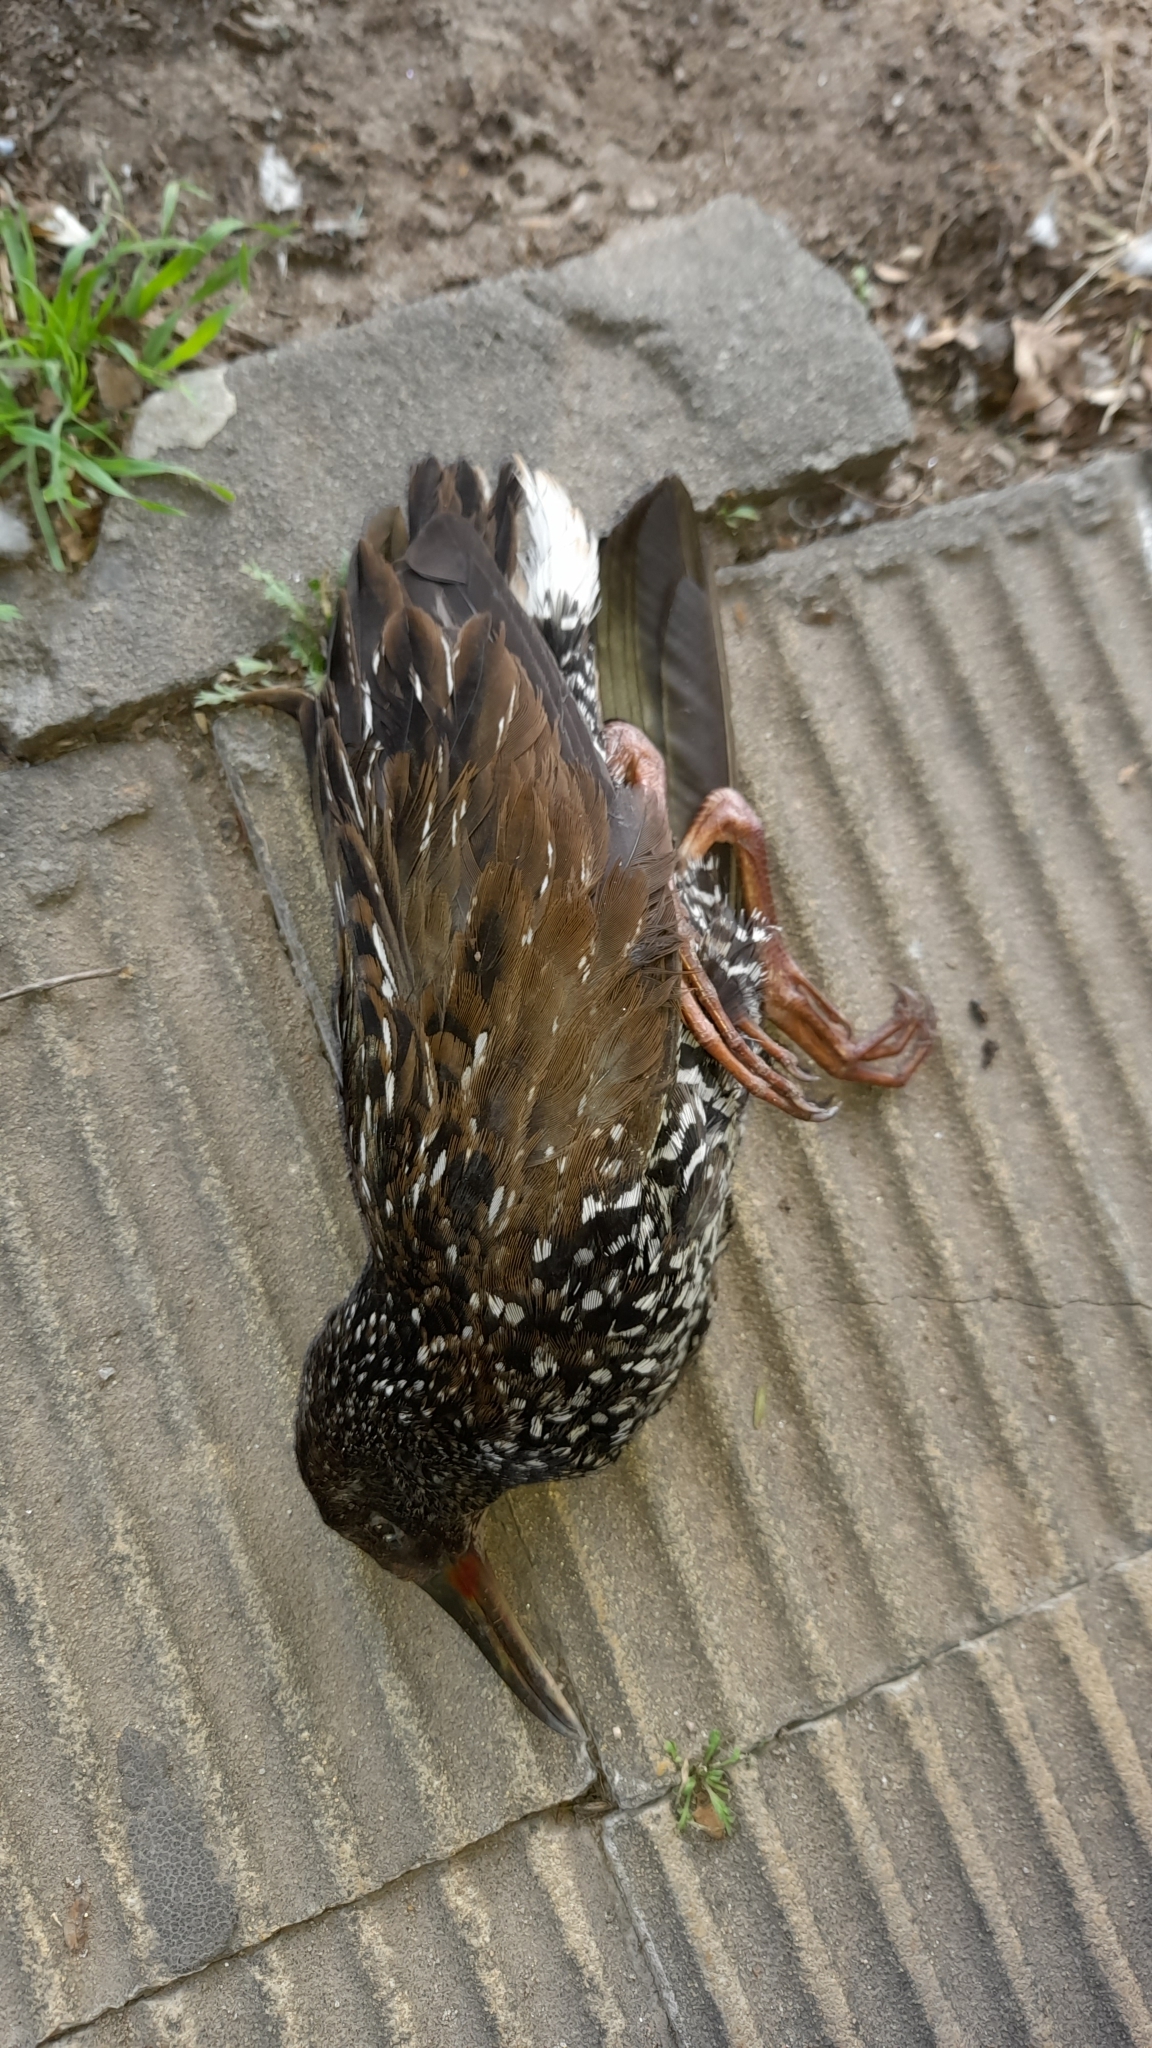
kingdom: Animalia
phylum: Chordata
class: Aves
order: Gruiformes
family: Rallidae
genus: Pardirallus
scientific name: Pardirallus maculatus
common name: Spotted rail
